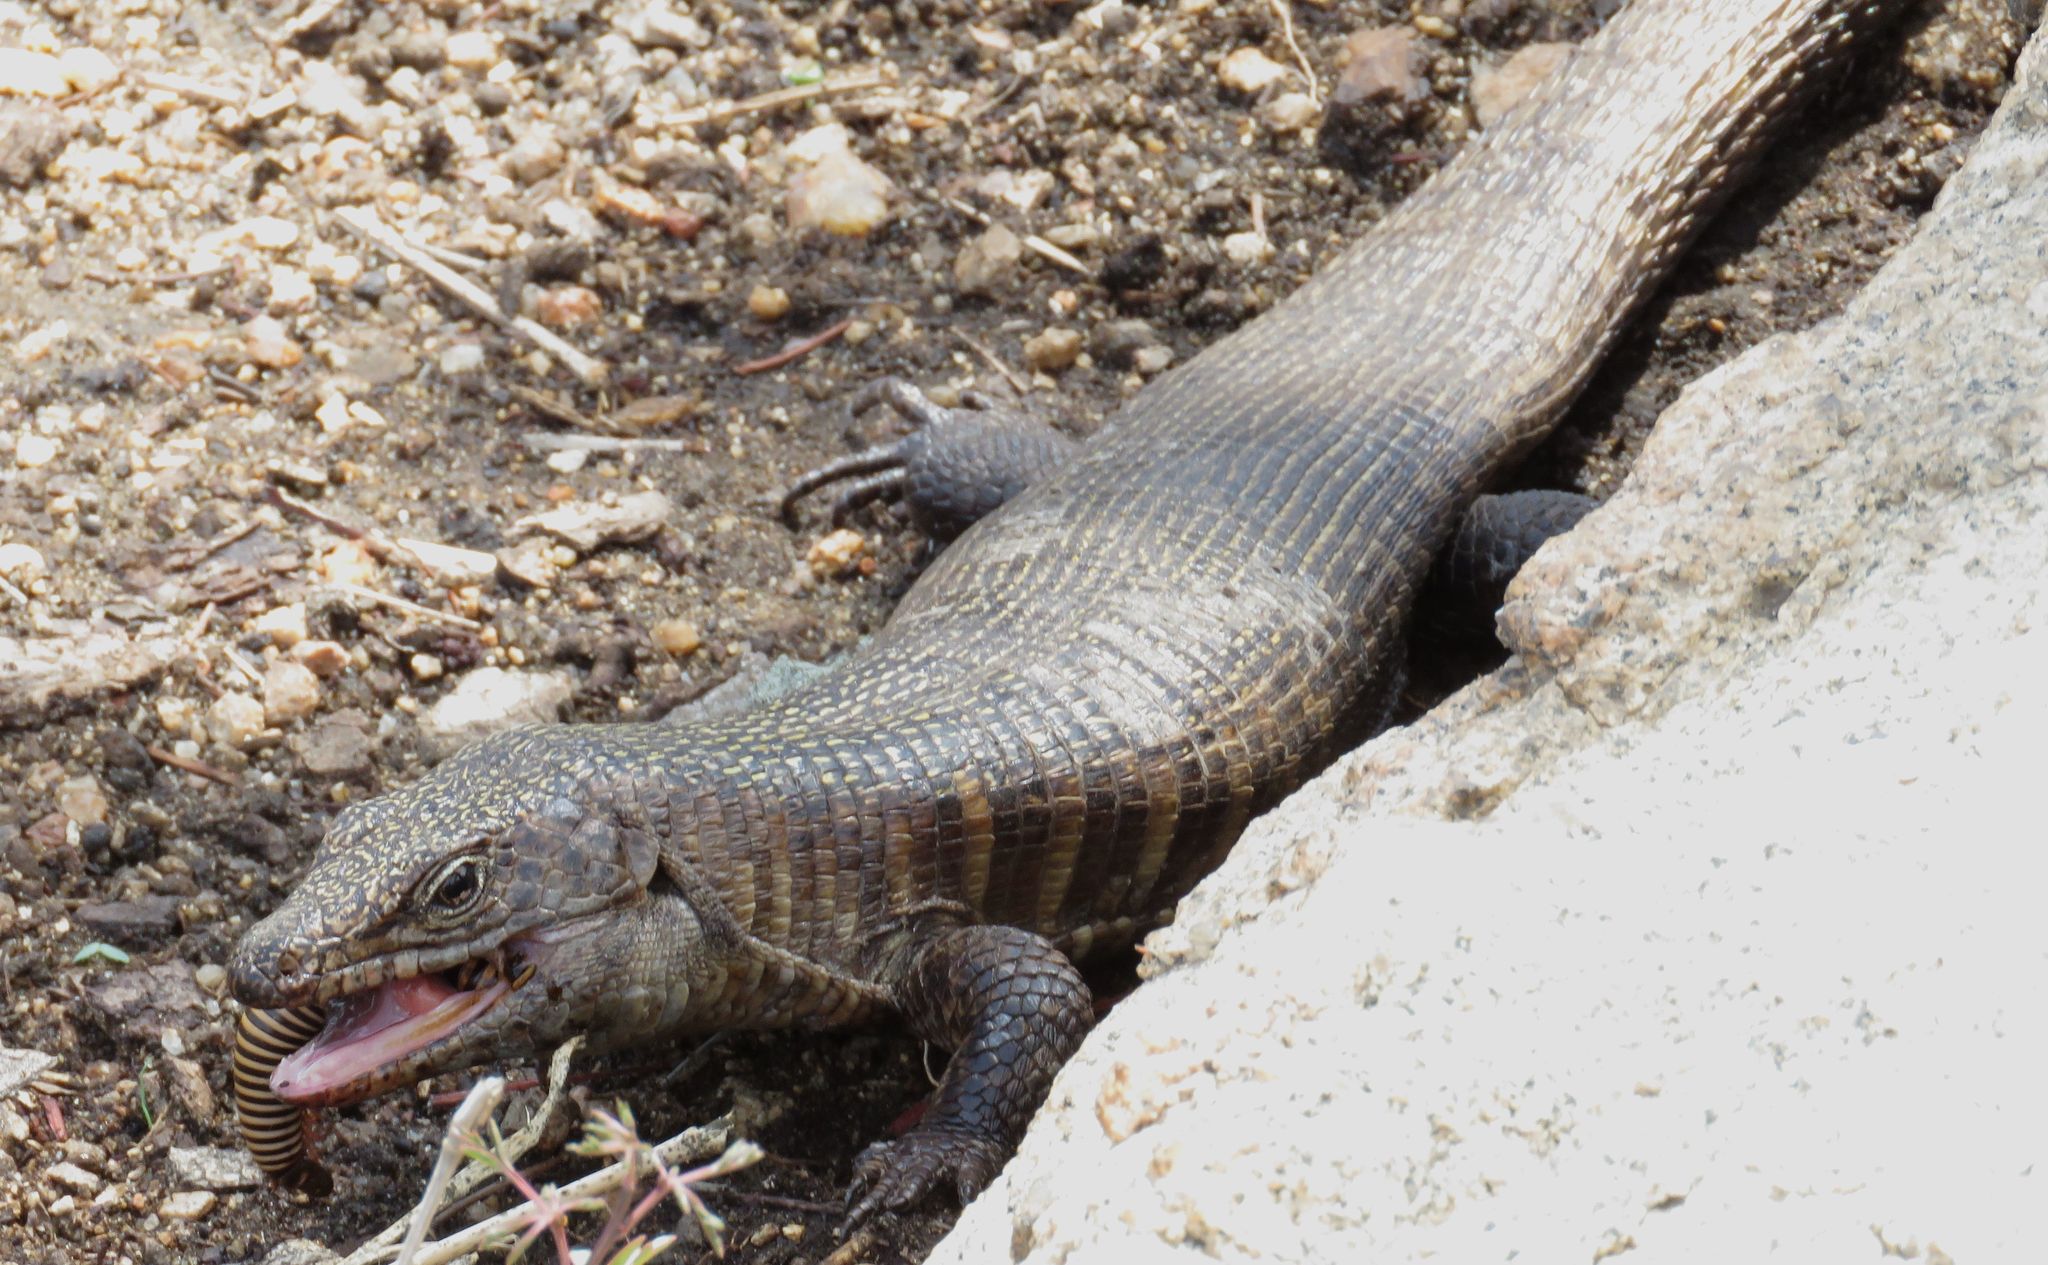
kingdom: Animalia
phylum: Chordata
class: Squamata
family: Gerrhosauridae
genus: Matobosaurus
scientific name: Matobosaurus validus
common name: Common giant plated lizard
